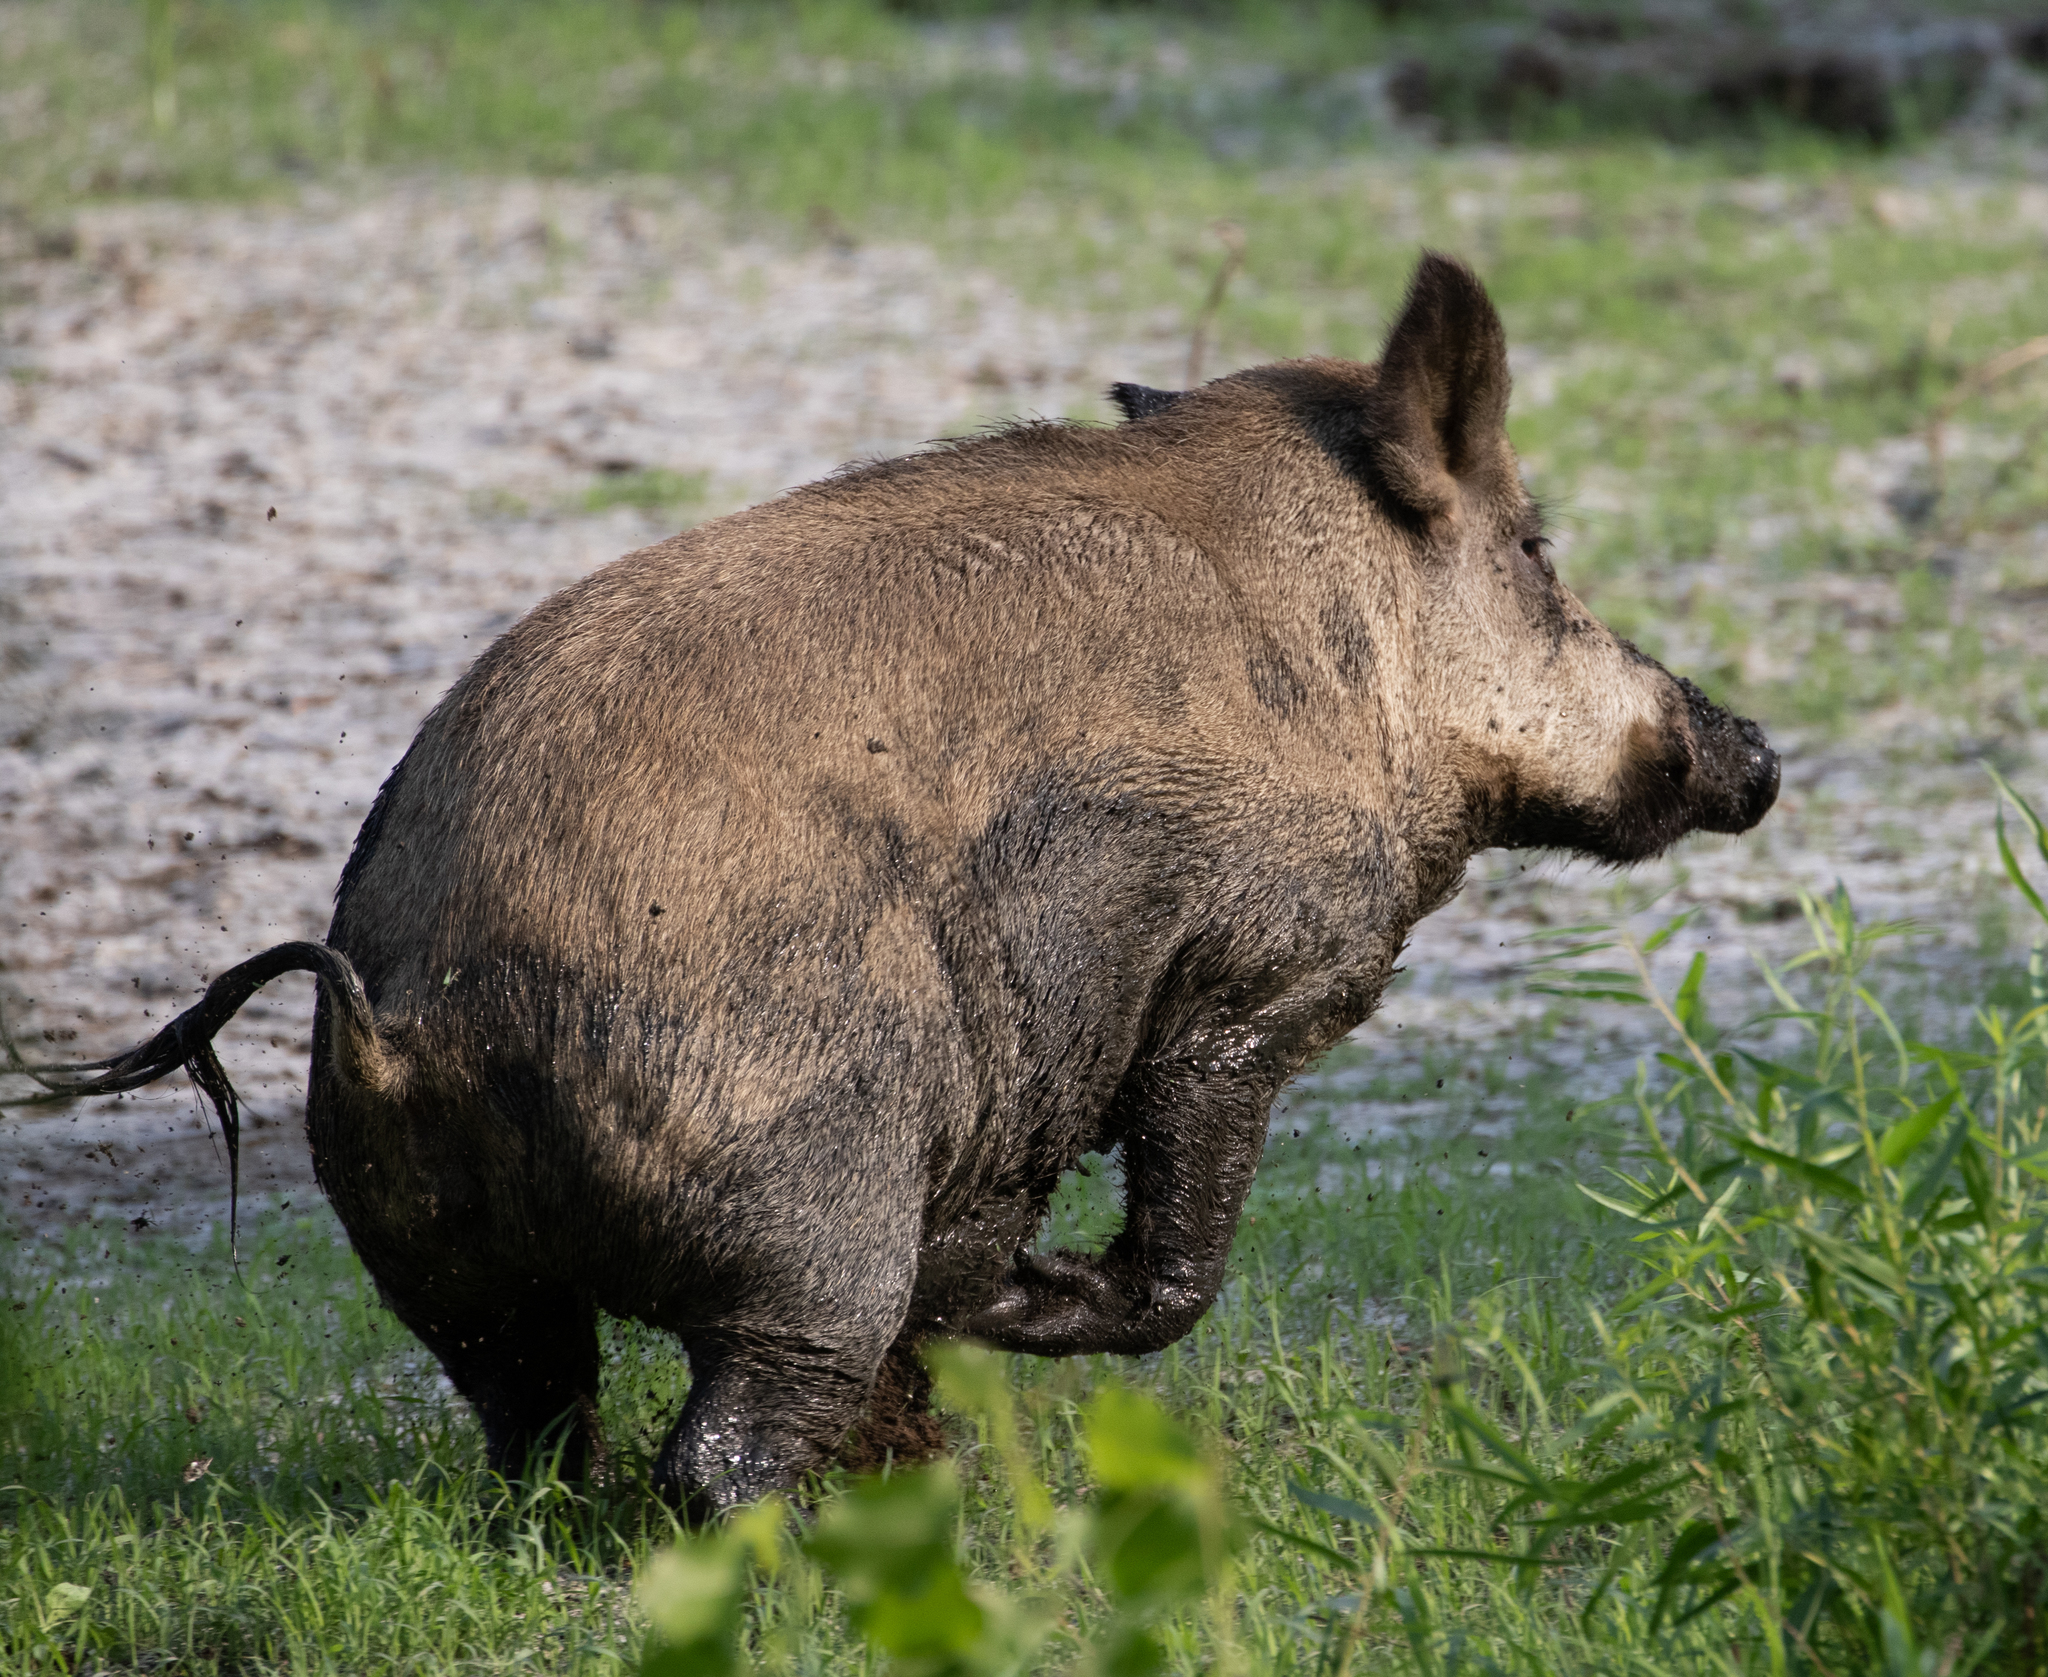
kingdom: Animalia
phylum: Chordata
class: Mammalia
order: Artiodactyla
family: Suidae
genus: Sus
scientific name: Sus scrofa
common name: Wild boar
